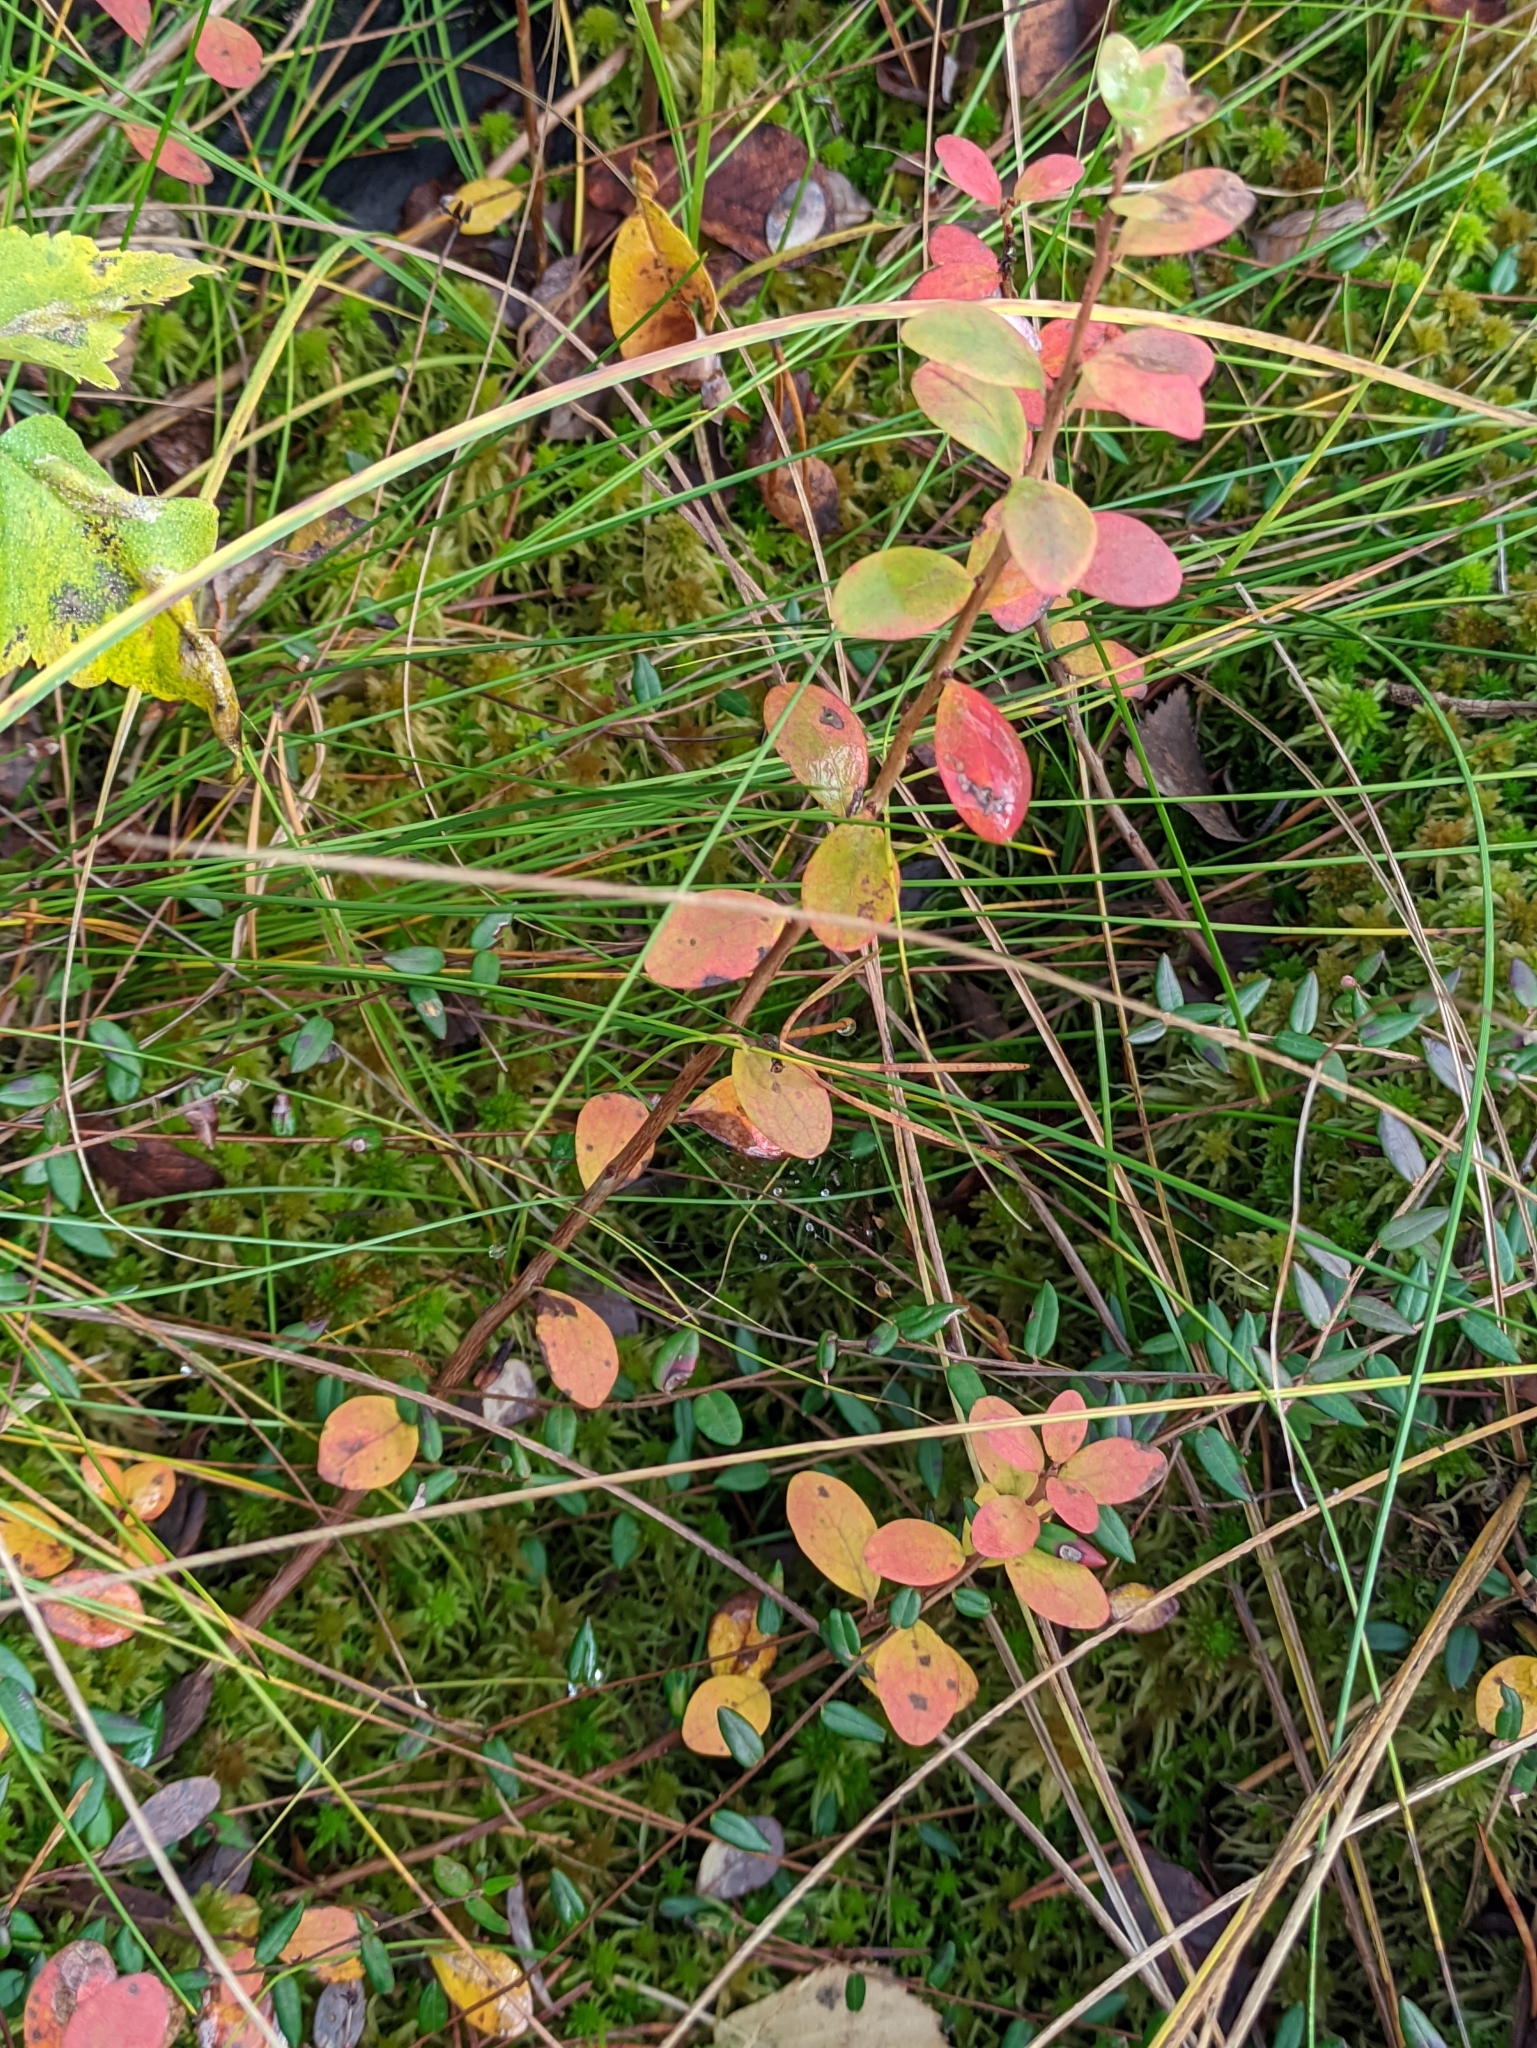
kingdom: Plantae
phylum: Tracheophyta
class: Magnoliopsida
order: Ericales
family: Ericaceae
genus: Vaccinium
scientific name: Vaccinium uliginosum
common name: Bog bilberry
